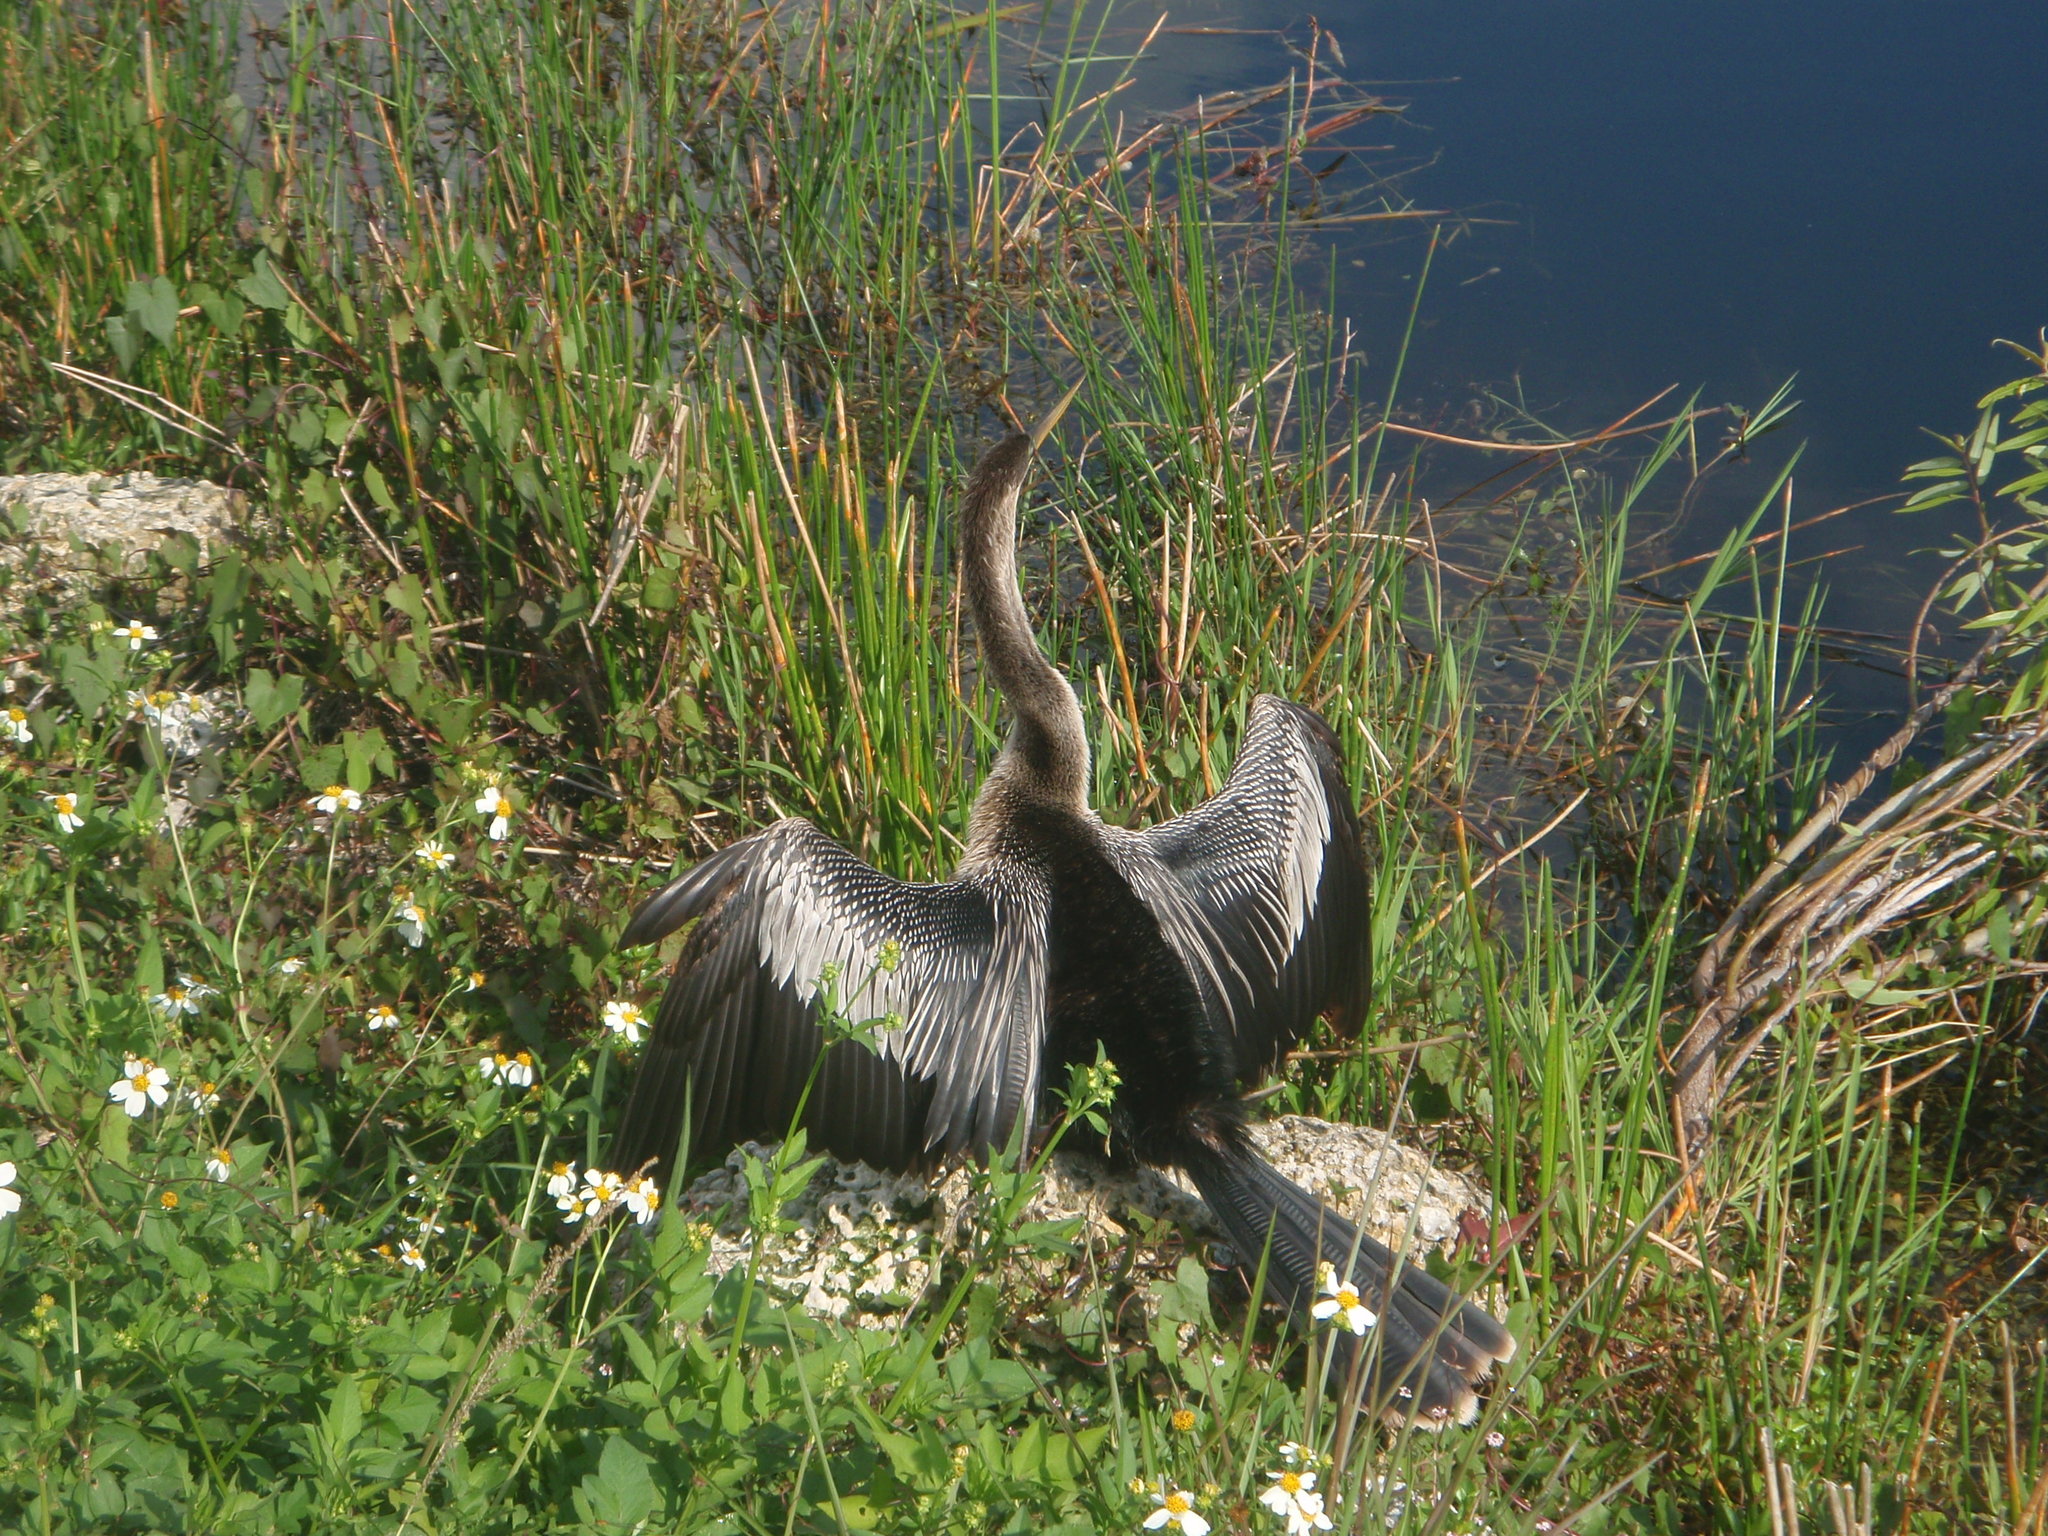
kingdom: Animalia
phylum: Chordata
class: Aves
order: Suliformes
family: Anhingidae
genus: Anhinga
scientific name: Anhinga anhinga
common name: Anhinga
